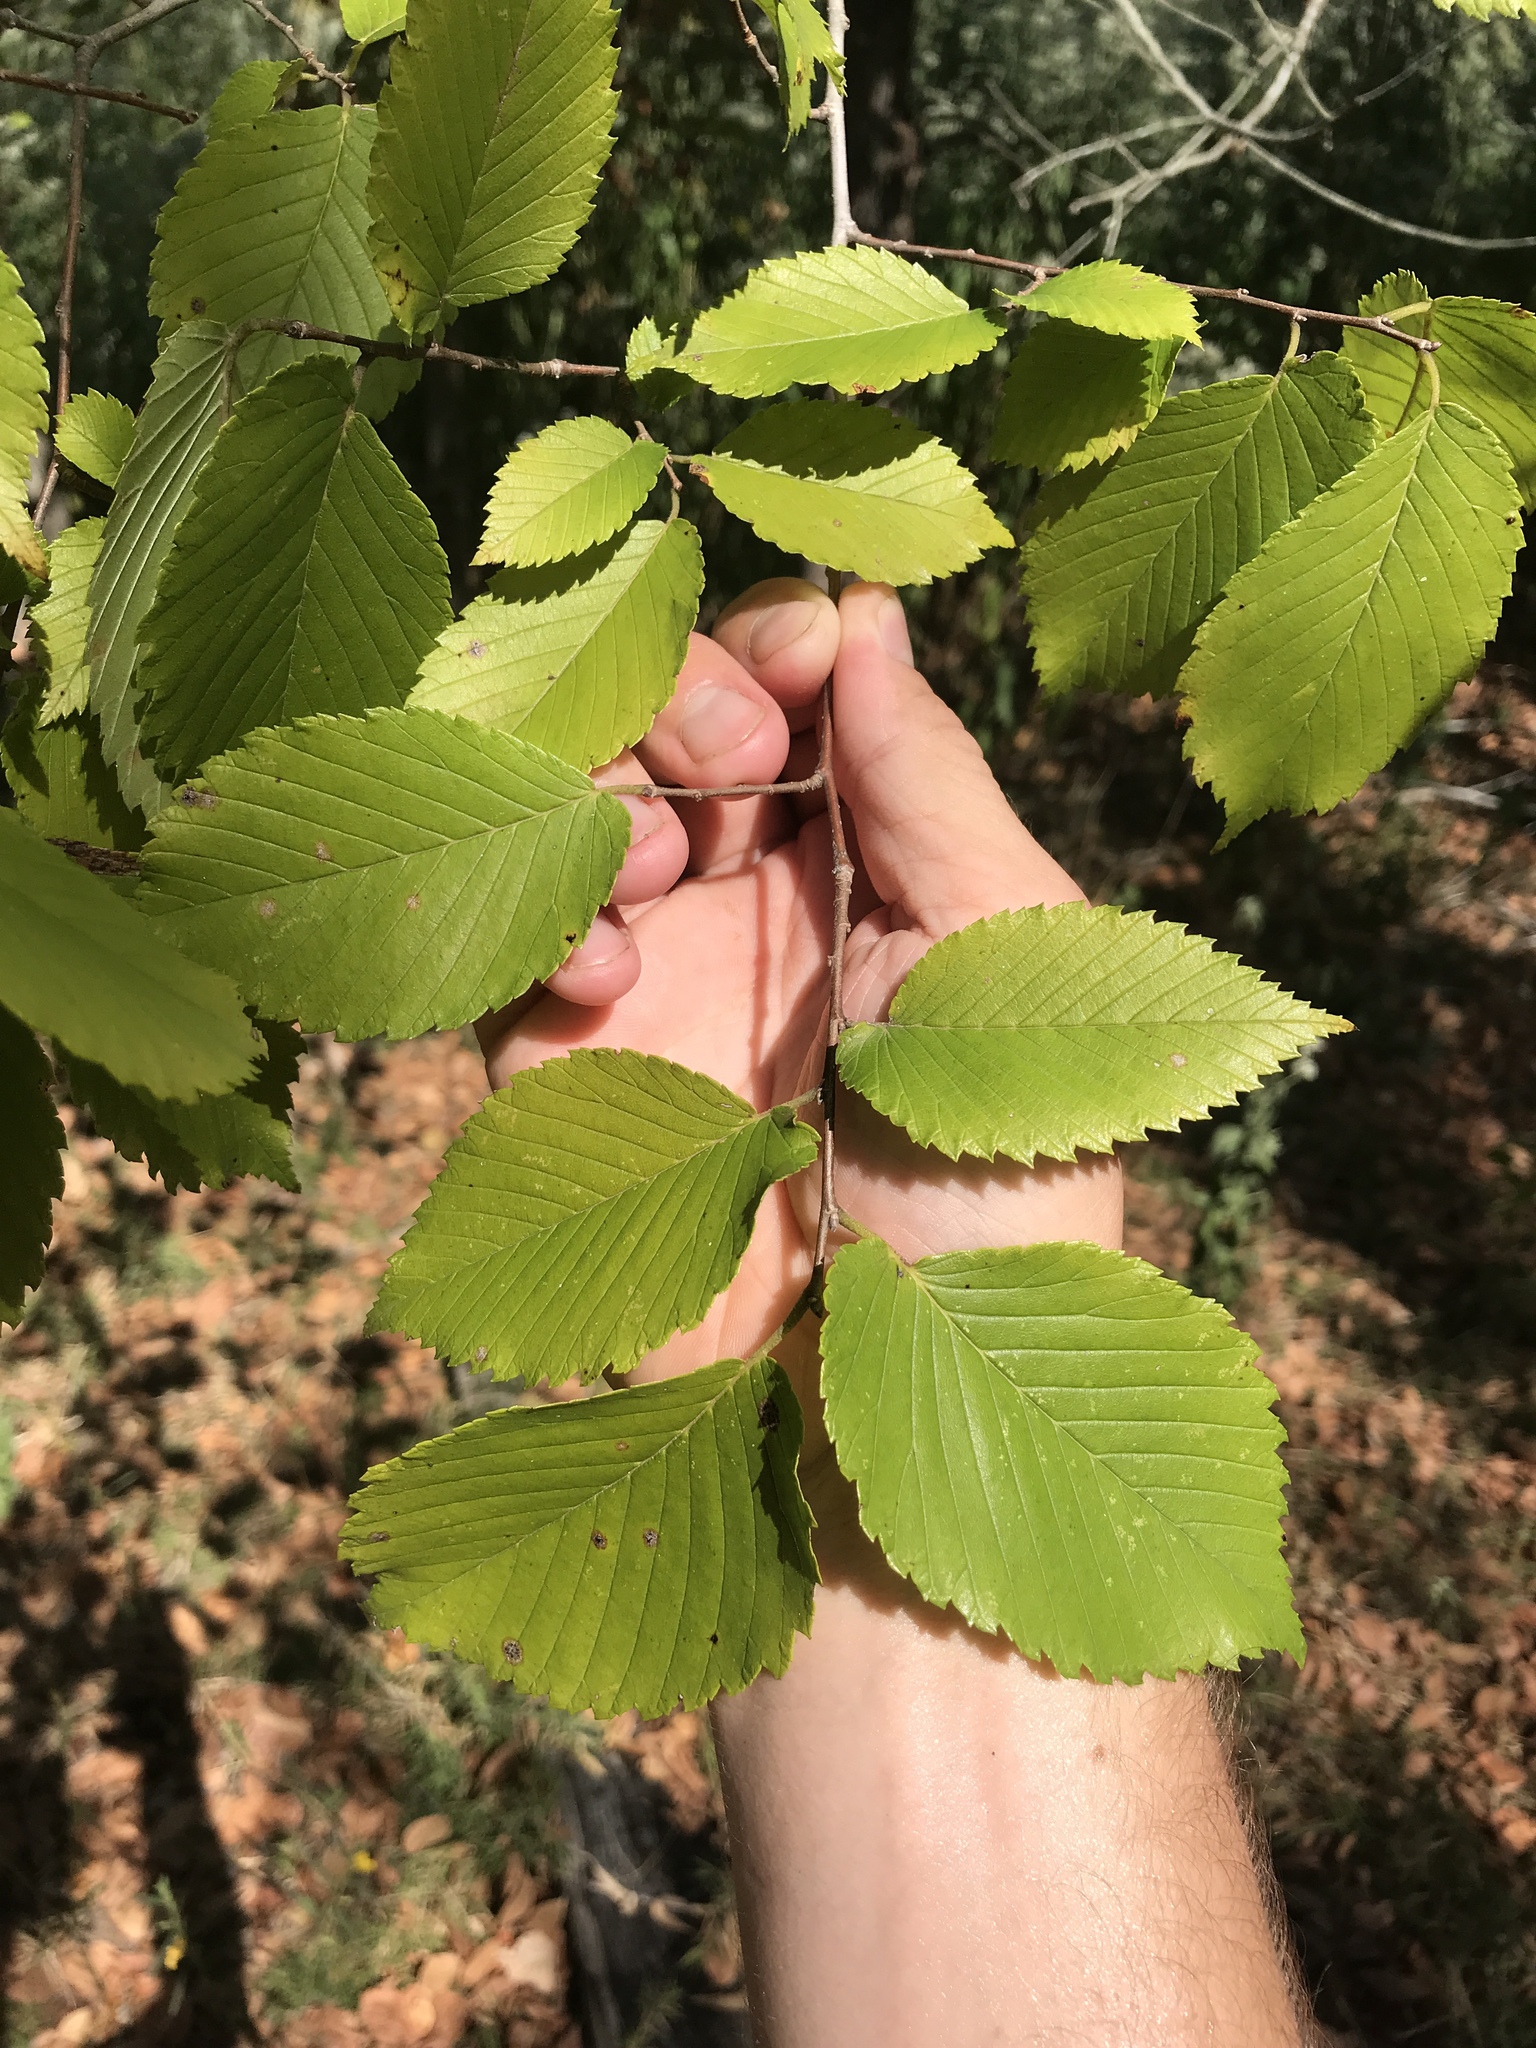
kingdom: Plantae
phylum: Tracheophyta
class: Magnoliopsida
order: Rosales
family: Ulmaceae
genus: Ulmus
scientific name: Ulmus americana
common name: American elm
